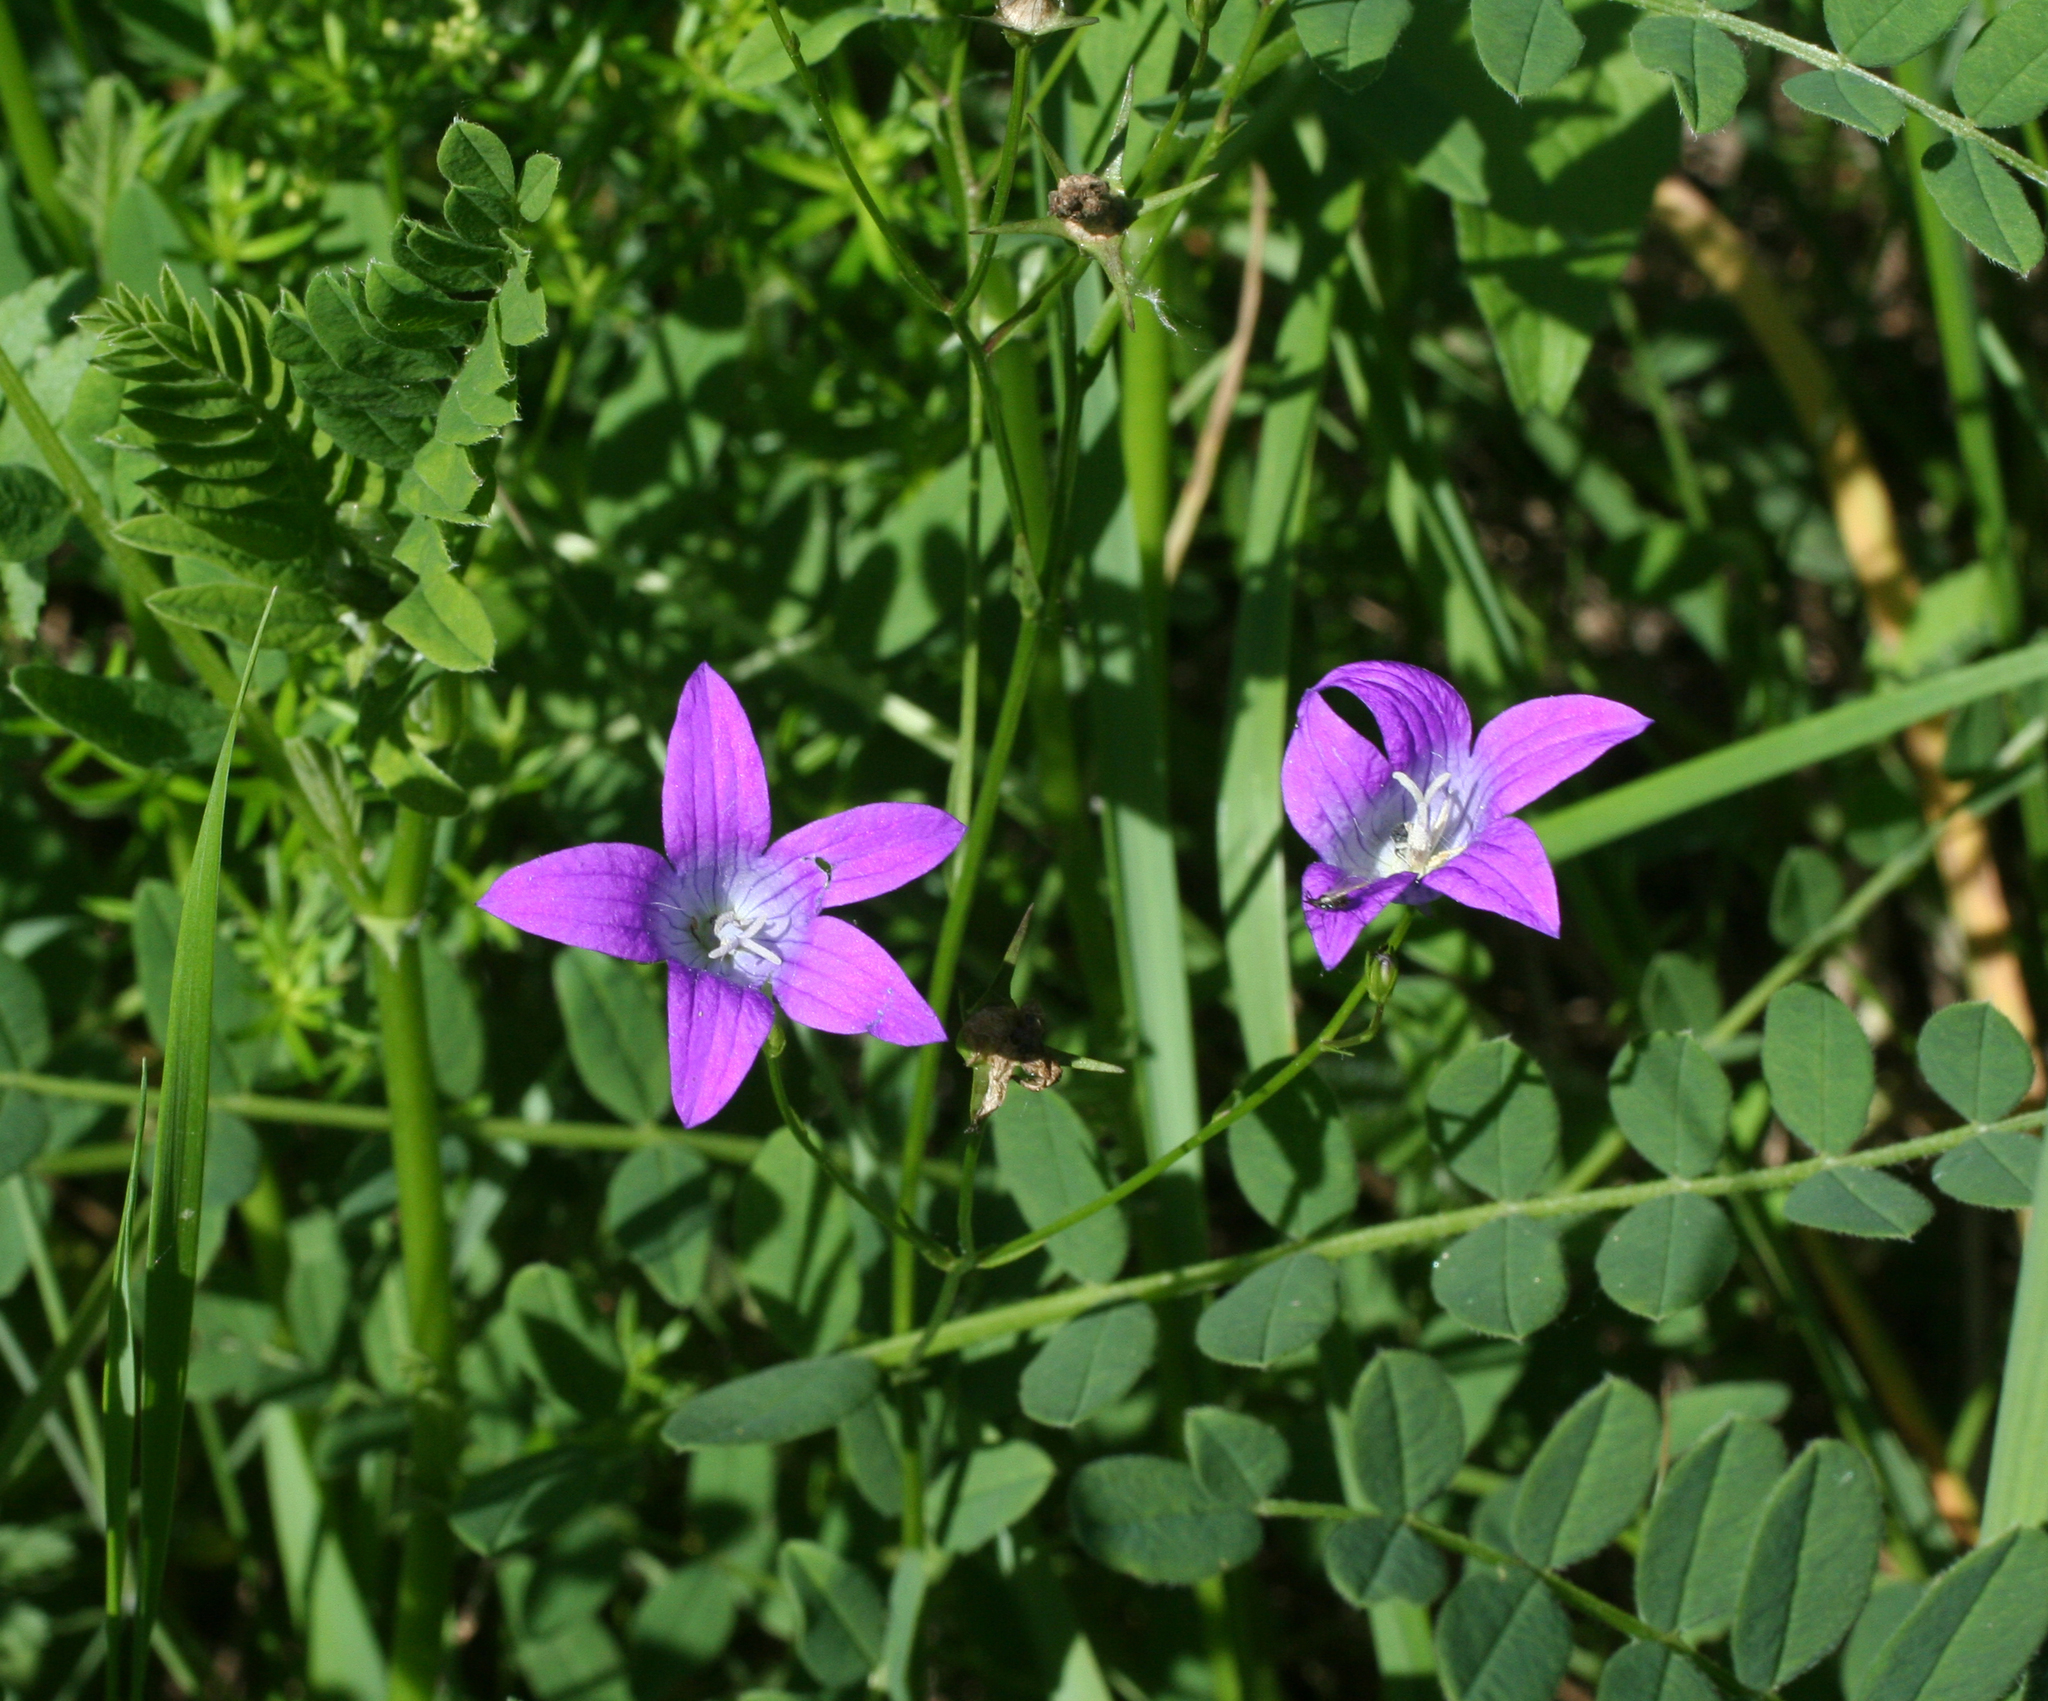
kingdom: Plantae
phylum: Tracheophyta
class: Magnoliopsida
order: Asterales
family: Campanulaceae
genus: Campanula
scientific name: Campanula patula
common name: Spreading bellflower
